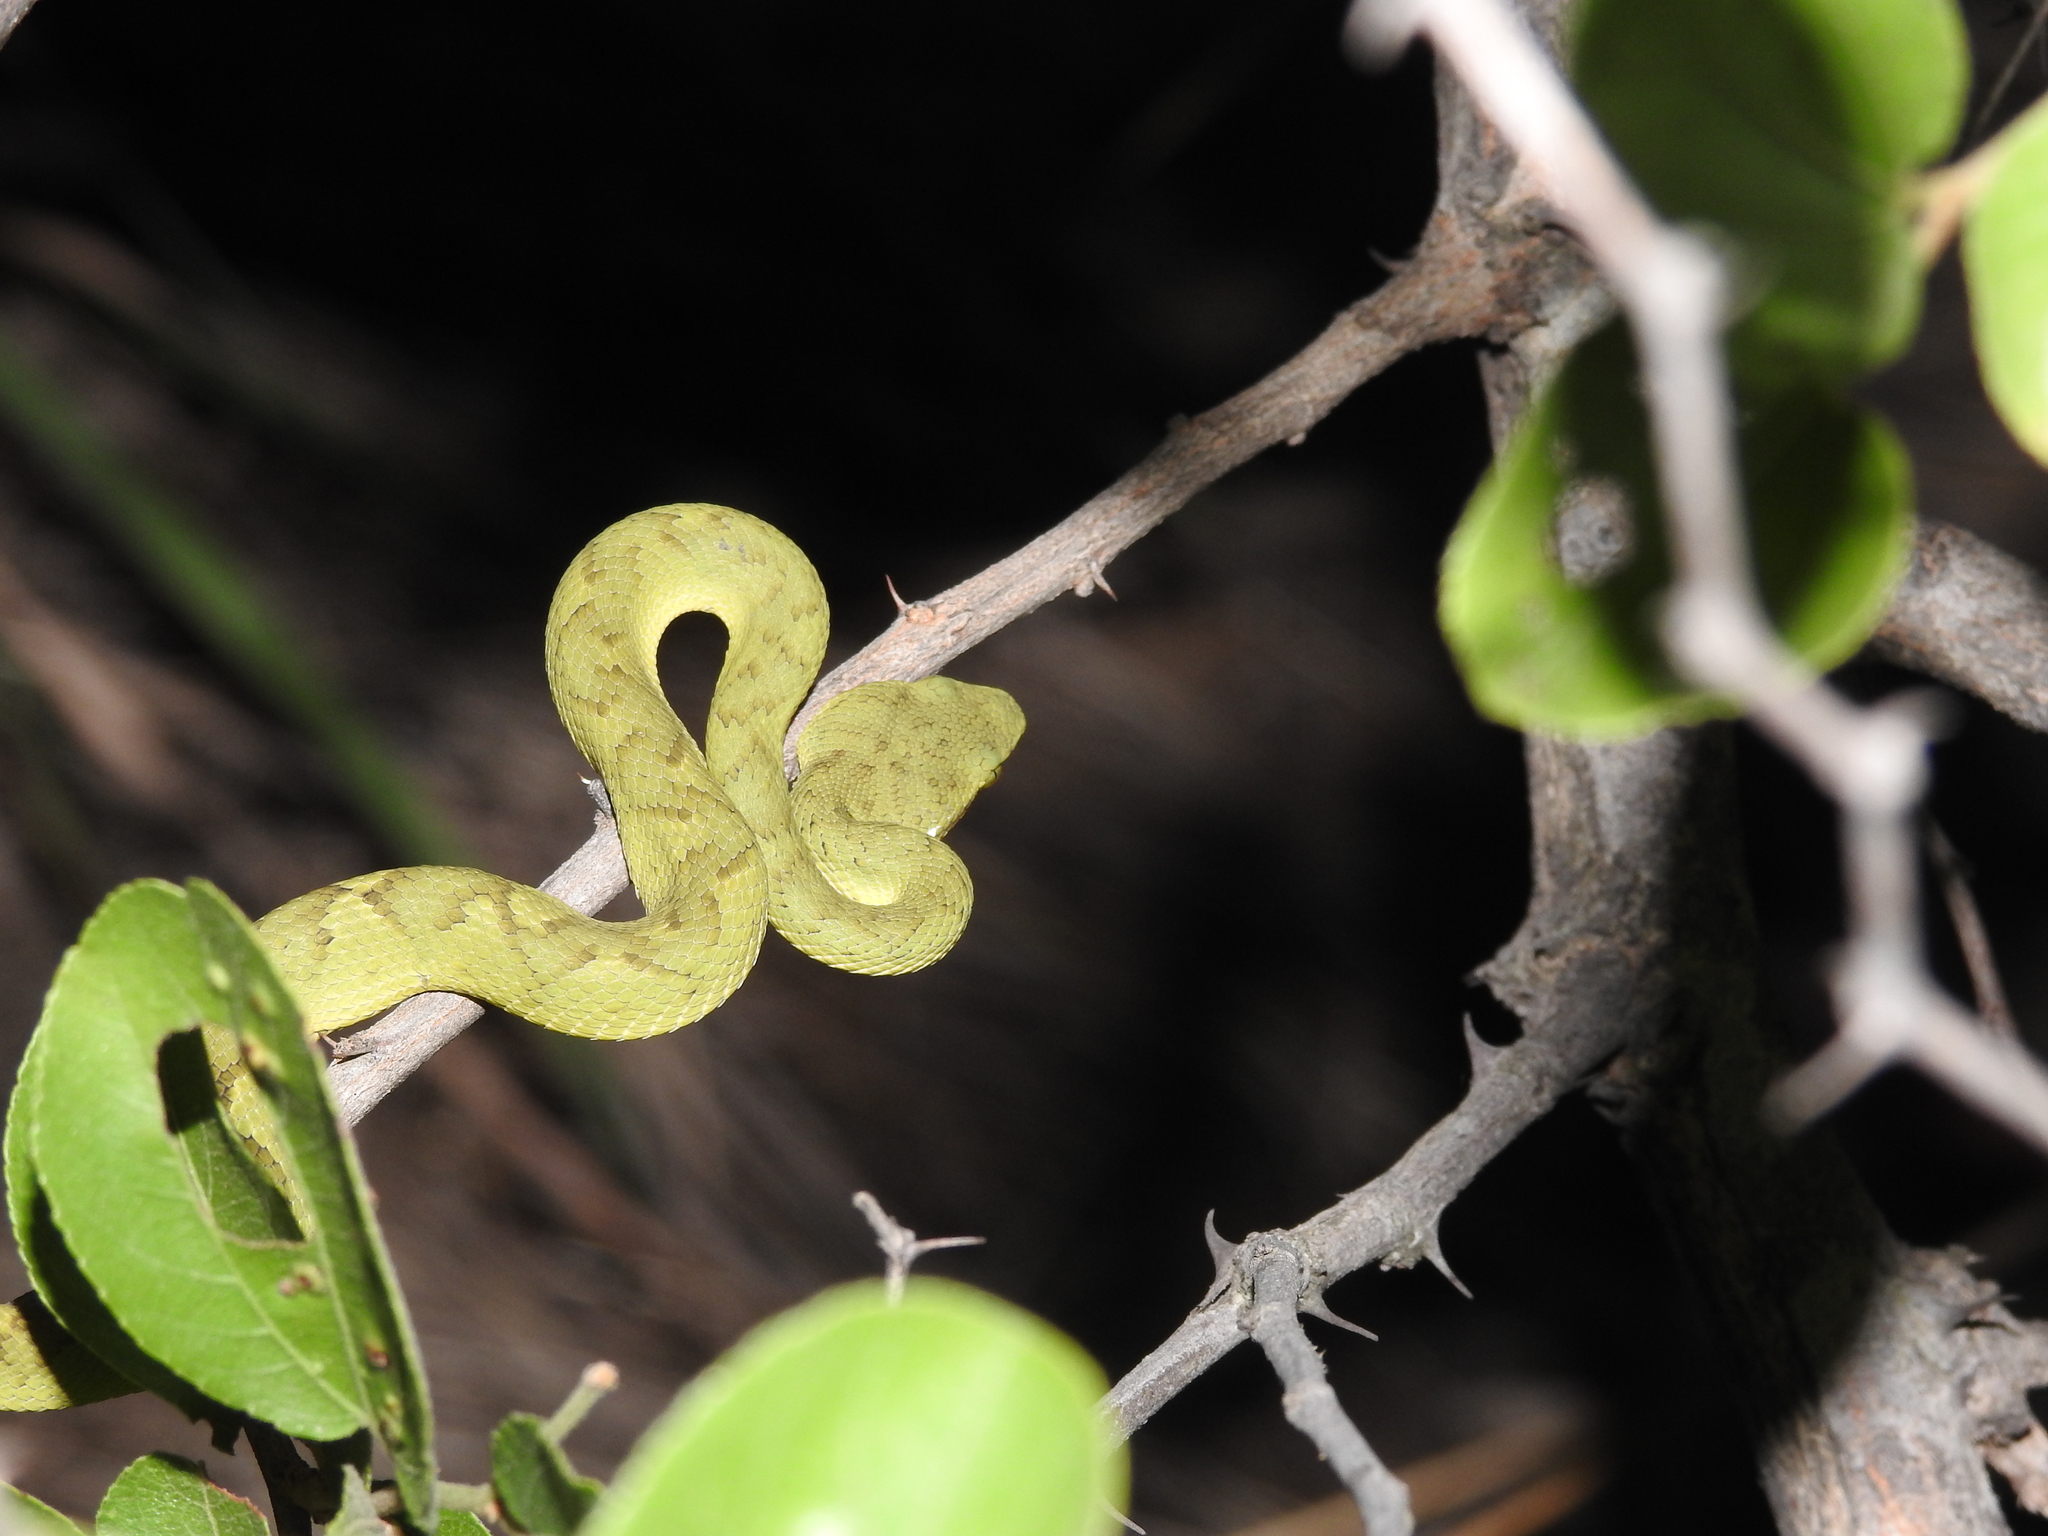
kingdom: Animalia
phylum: Chordata
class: Squamata
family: Viperidae
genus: Craspedocephalus
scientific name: Craspedocephalus gramineus
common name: Common bamboo viper
